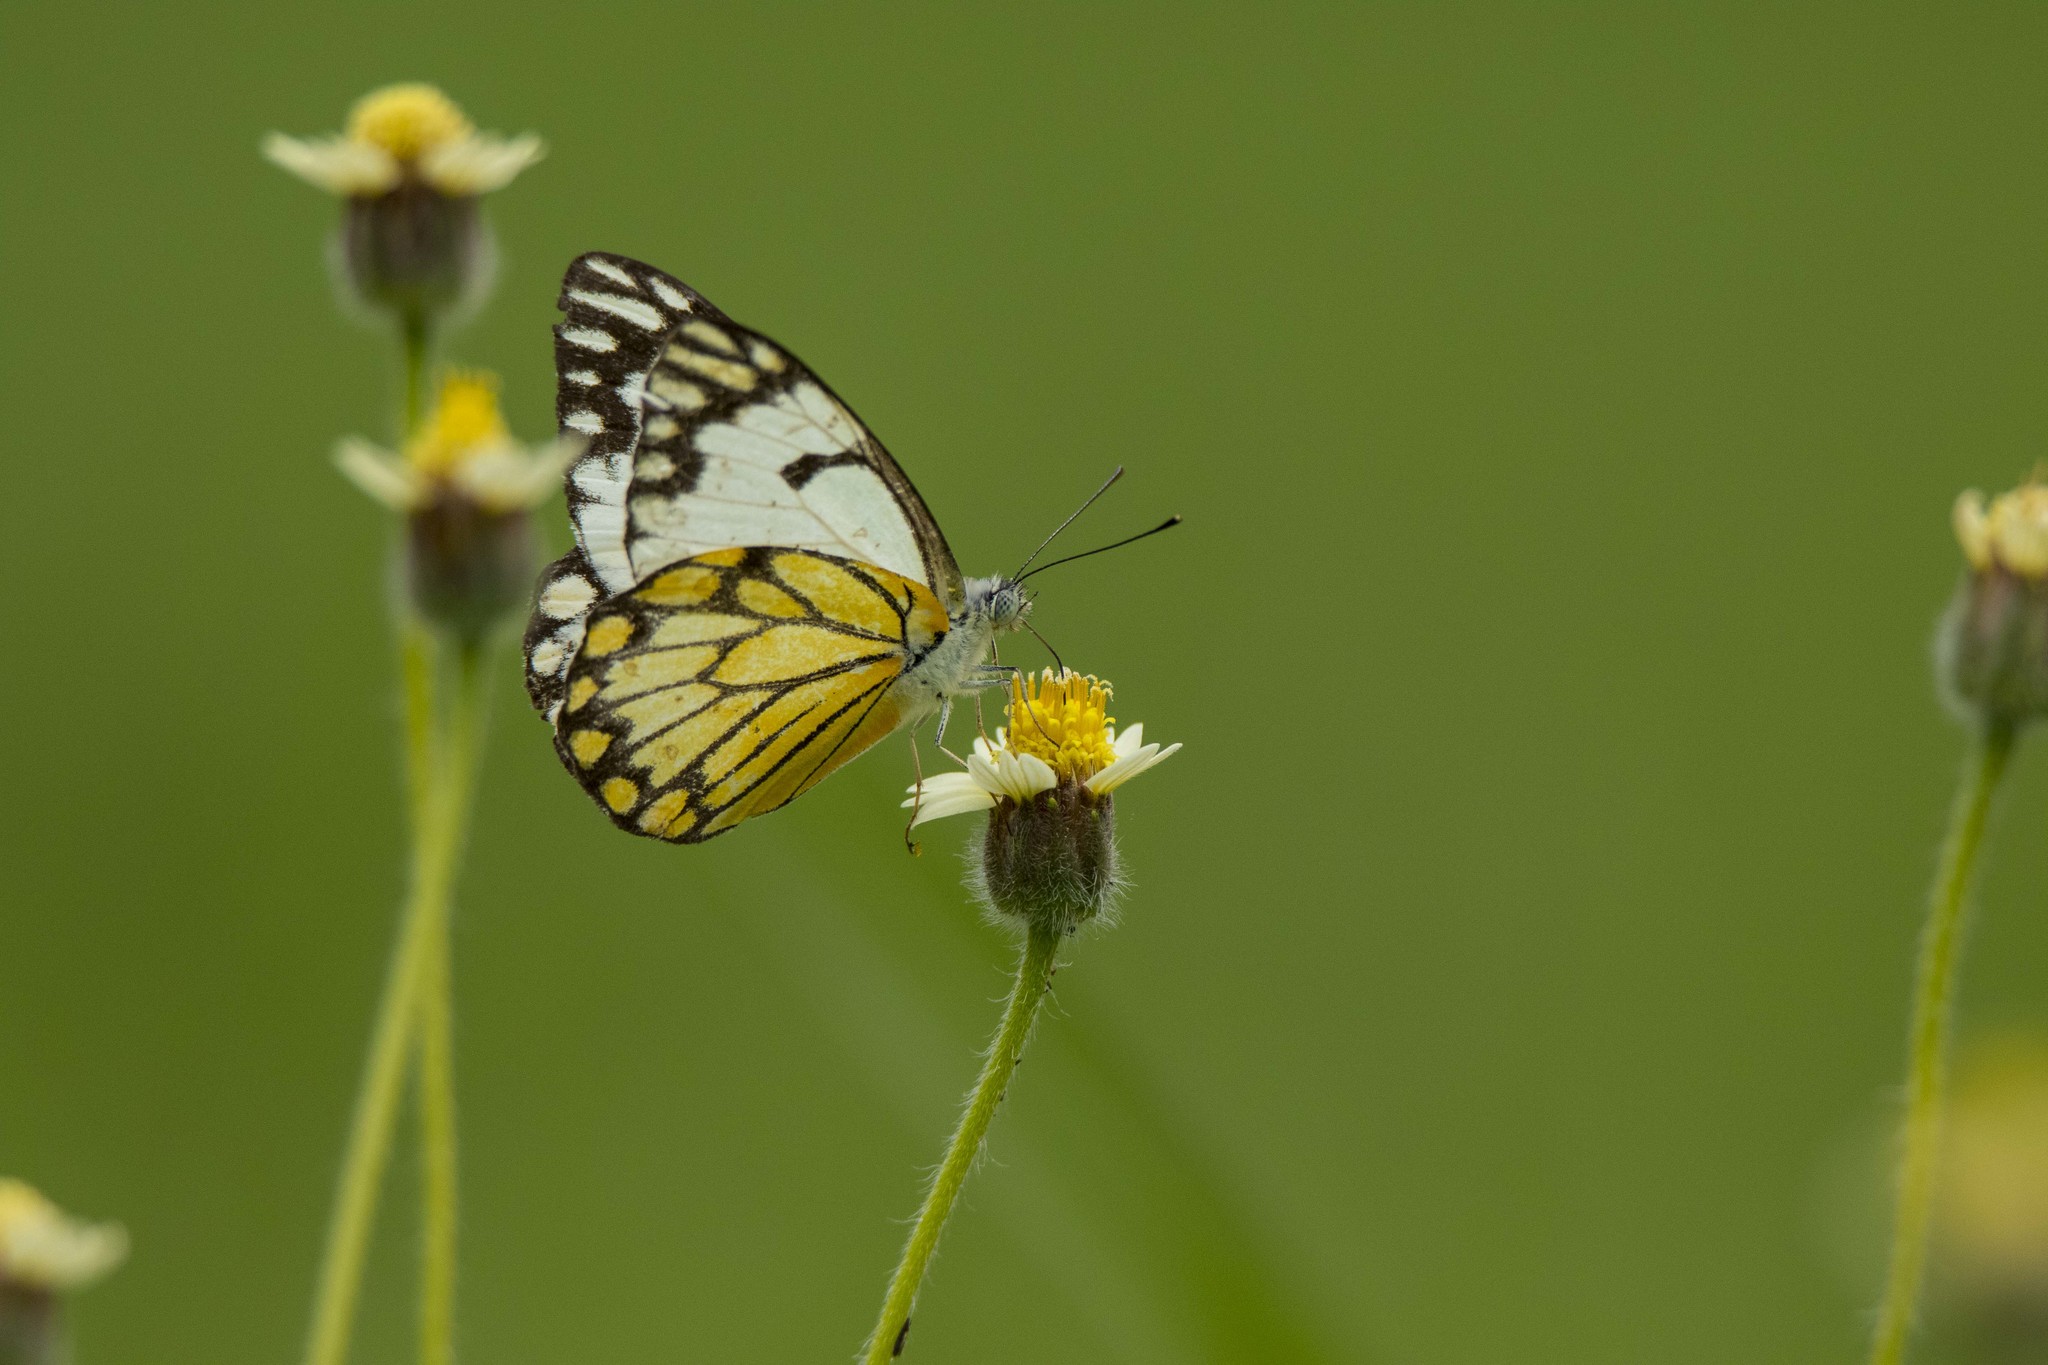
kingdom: Animalia
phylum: Arthropoda
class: Insecta
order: Lepidoptera
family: Pieridae
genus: Belenois
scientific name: Belenois aurota
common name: Brown-veined white
